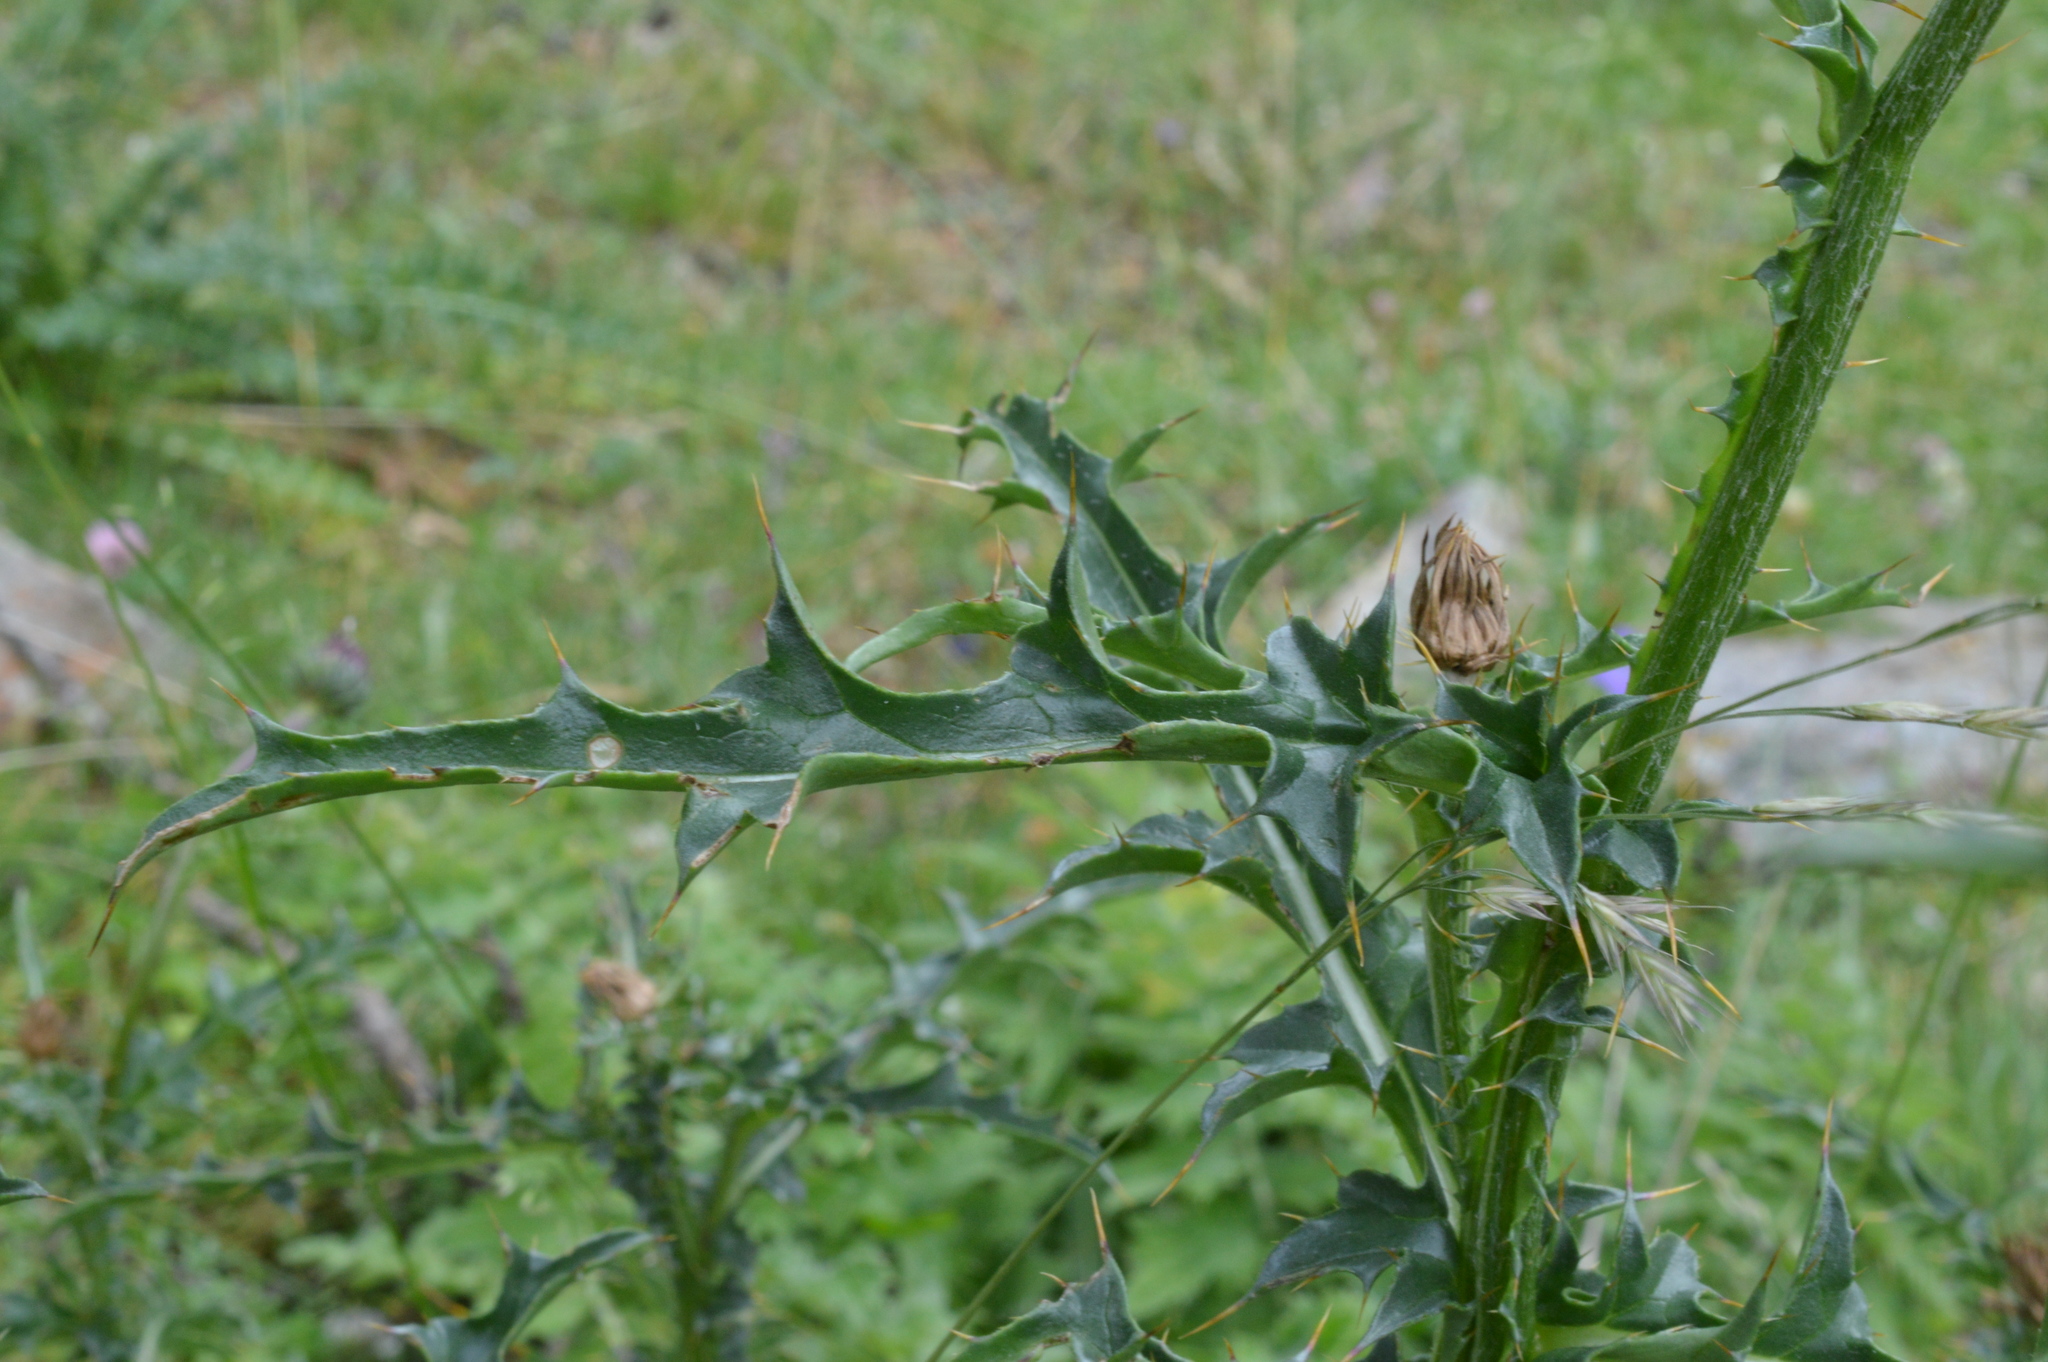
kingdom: Plantae
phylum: Tracheophyta
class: Magnoliopsida
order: Asterales
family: Asteraceae
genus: Carduus
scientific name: Carduus defloratus
